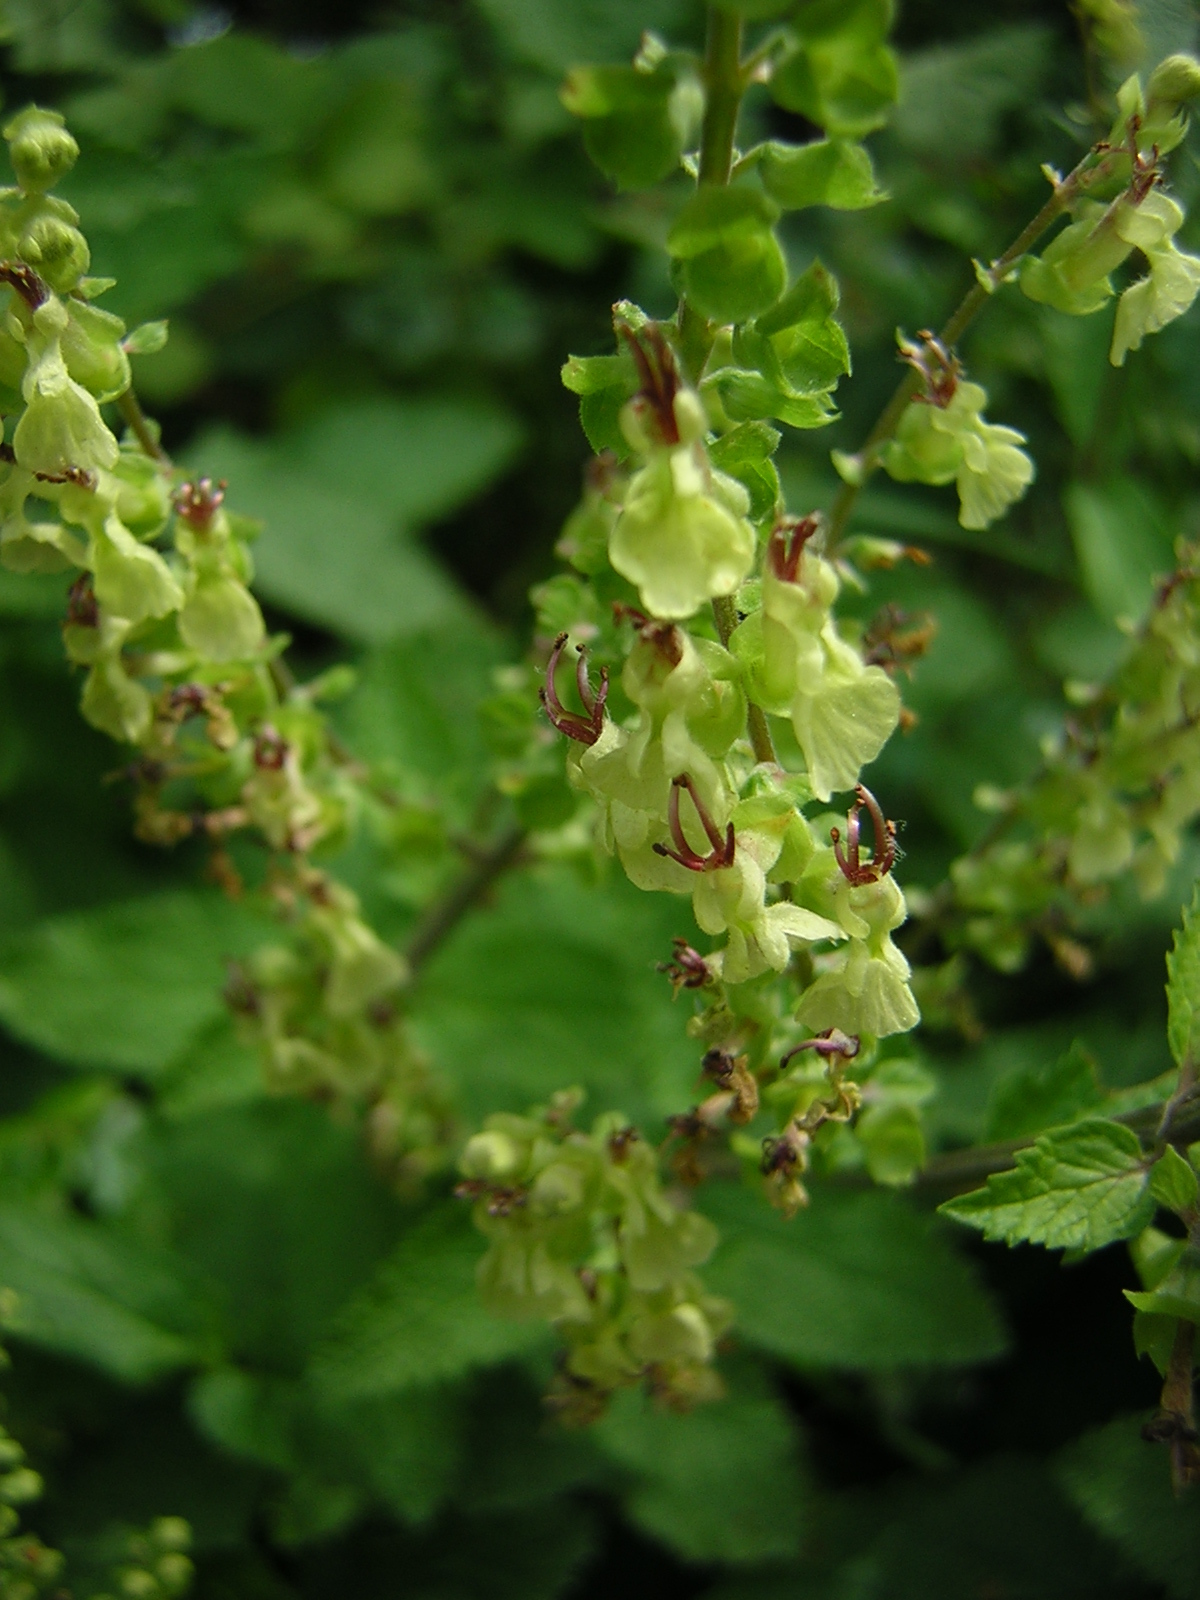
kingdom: Plantae
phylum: Tracheophyta
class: Magnoliopsida
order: Lamiales
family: Lamiaceae
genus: Teucrium
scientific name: Teucrium scorodonia
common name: Woodland germander
